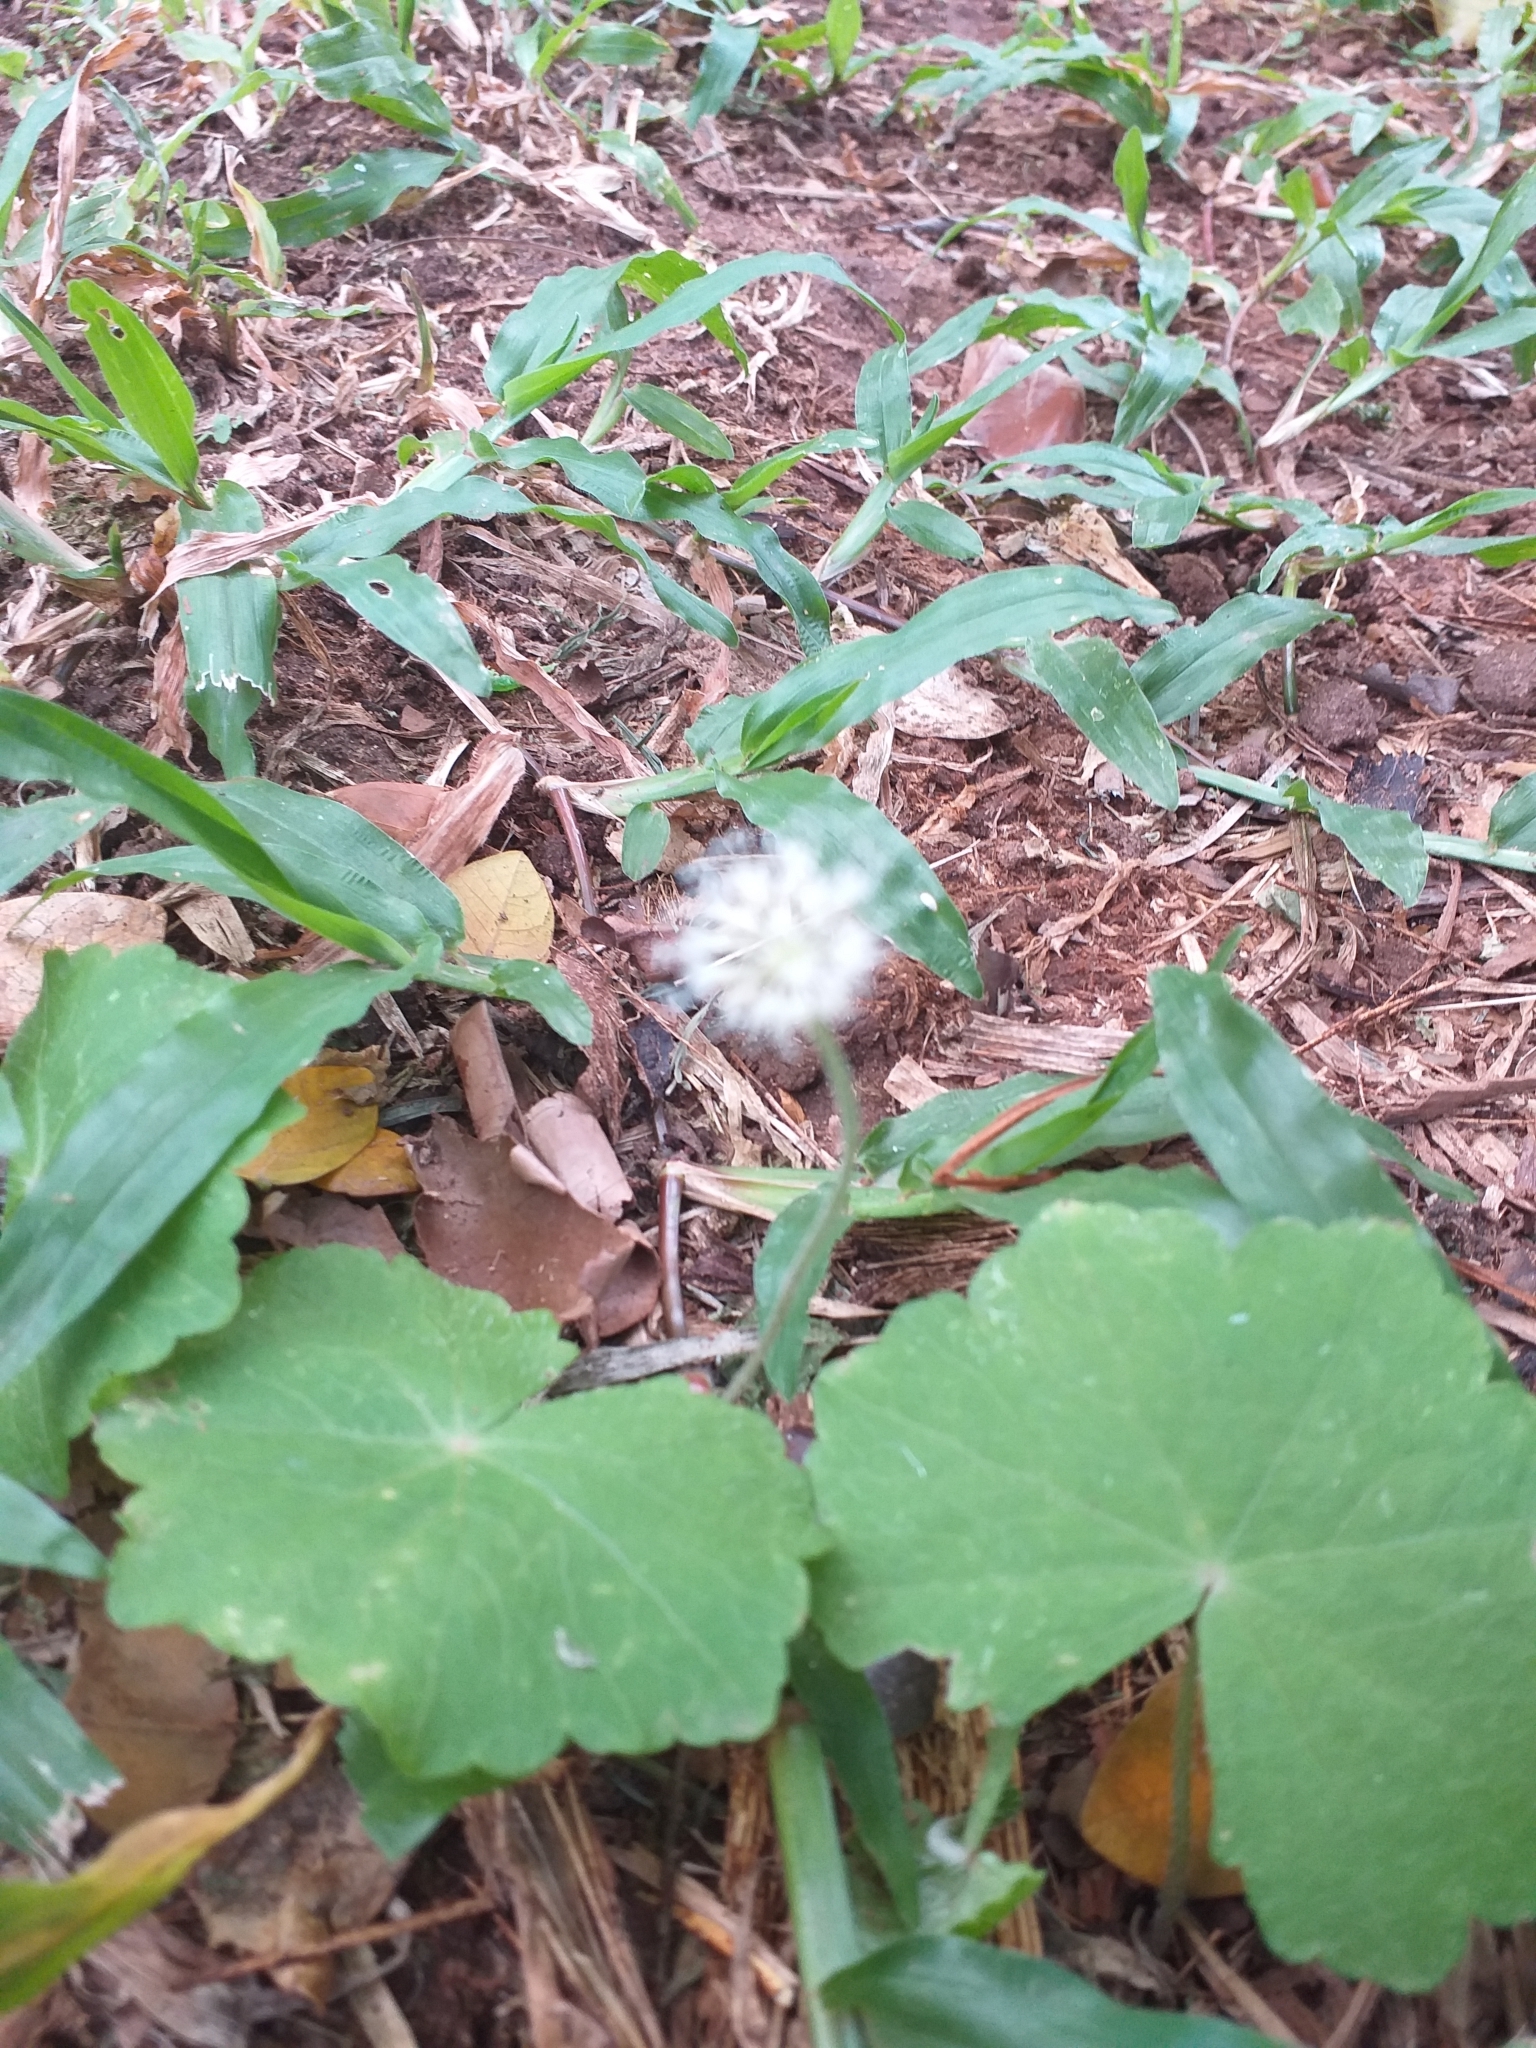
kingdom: Plantae
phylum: Tracheophyta
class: Magnoliopsida
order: Apiales
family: Araliaceae
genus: Hydrocotyle
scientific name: Hydrocotyle leucocephala
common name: Brazilian pennywort
